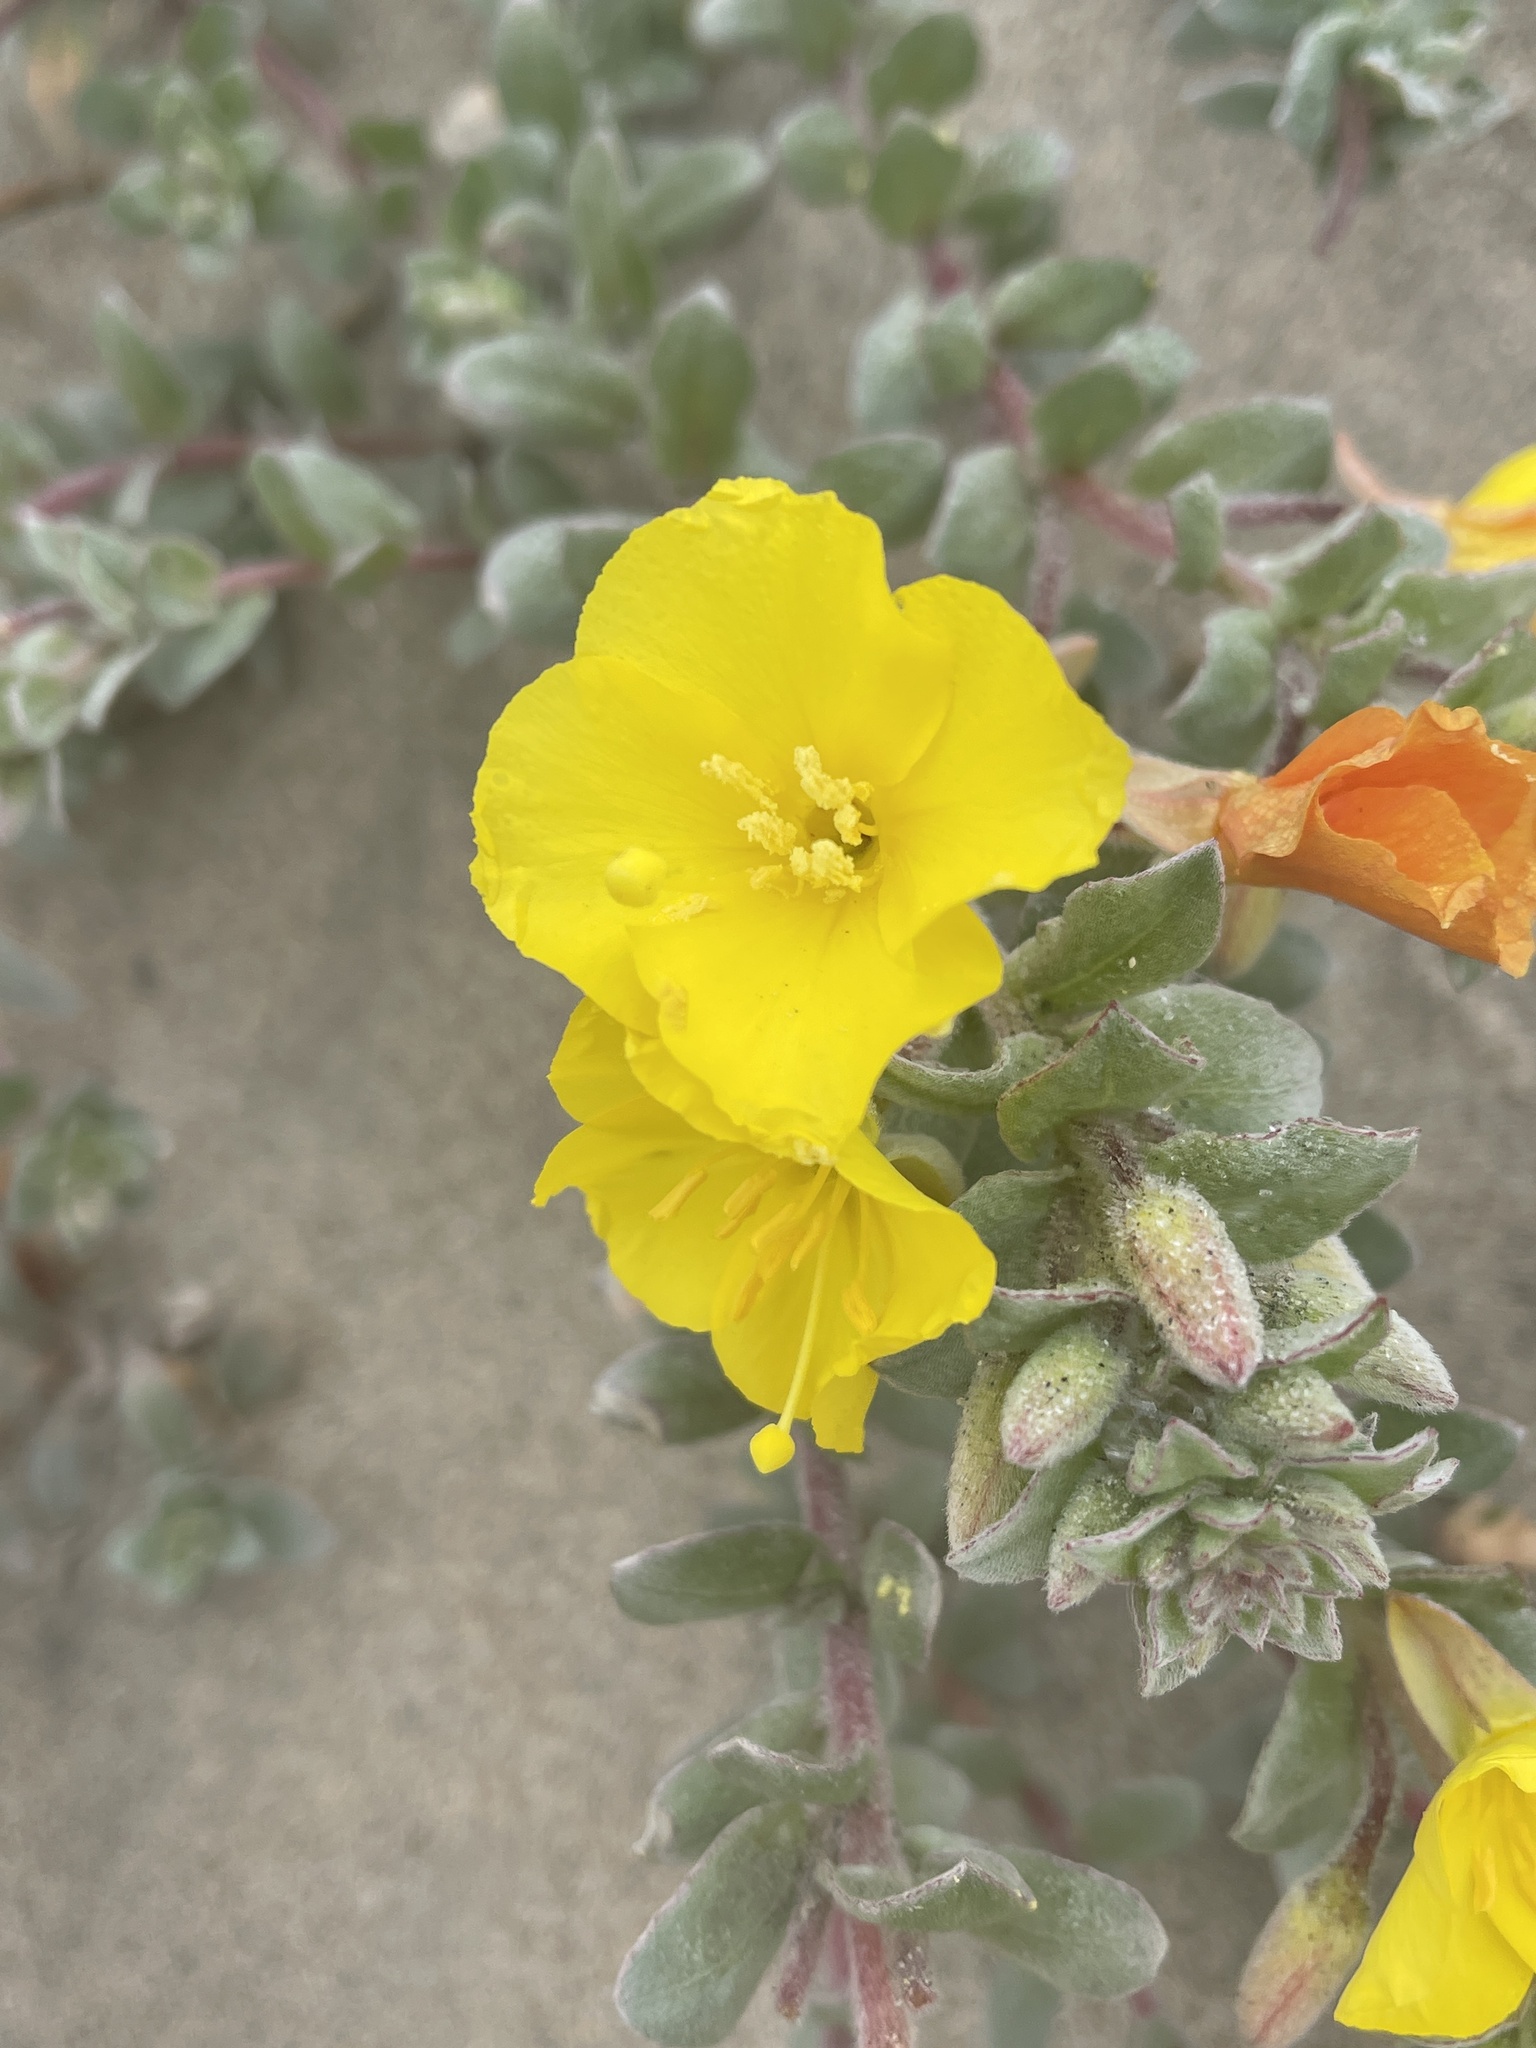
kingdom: Plantae
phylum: Tracheophyta
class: Magnoliopsida
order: Myrtales
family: Onagraceae
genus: Camissoniopsis
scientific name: Camissoniopsis cheiranthifolia
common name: Beach suncup
